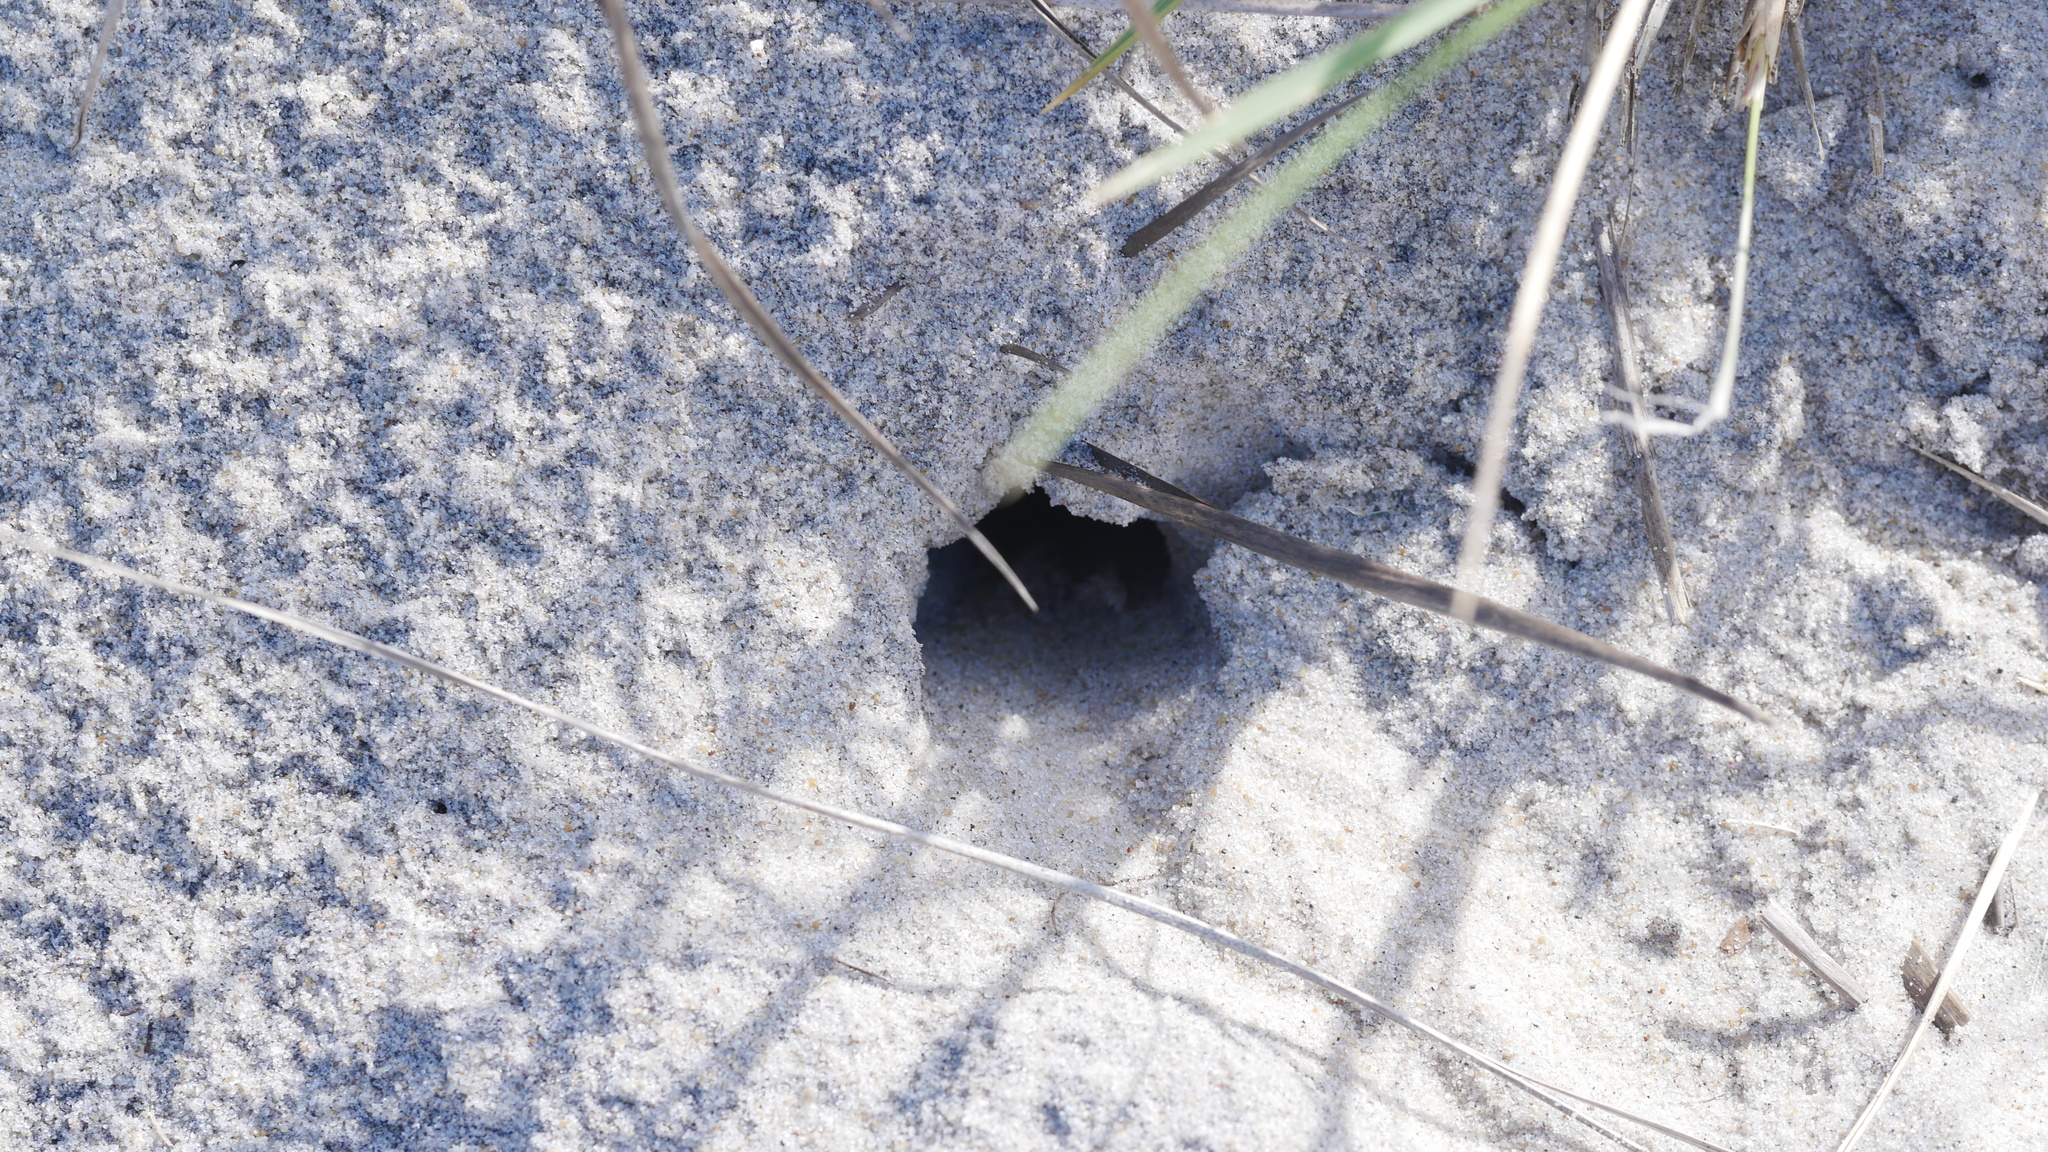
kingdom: Animalia
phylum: Arthropoda
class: Malacostraca
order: Decapoda
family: Ocypodidae
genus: Ocypode
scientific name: Ocypode quadrata
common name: Ghost crab
